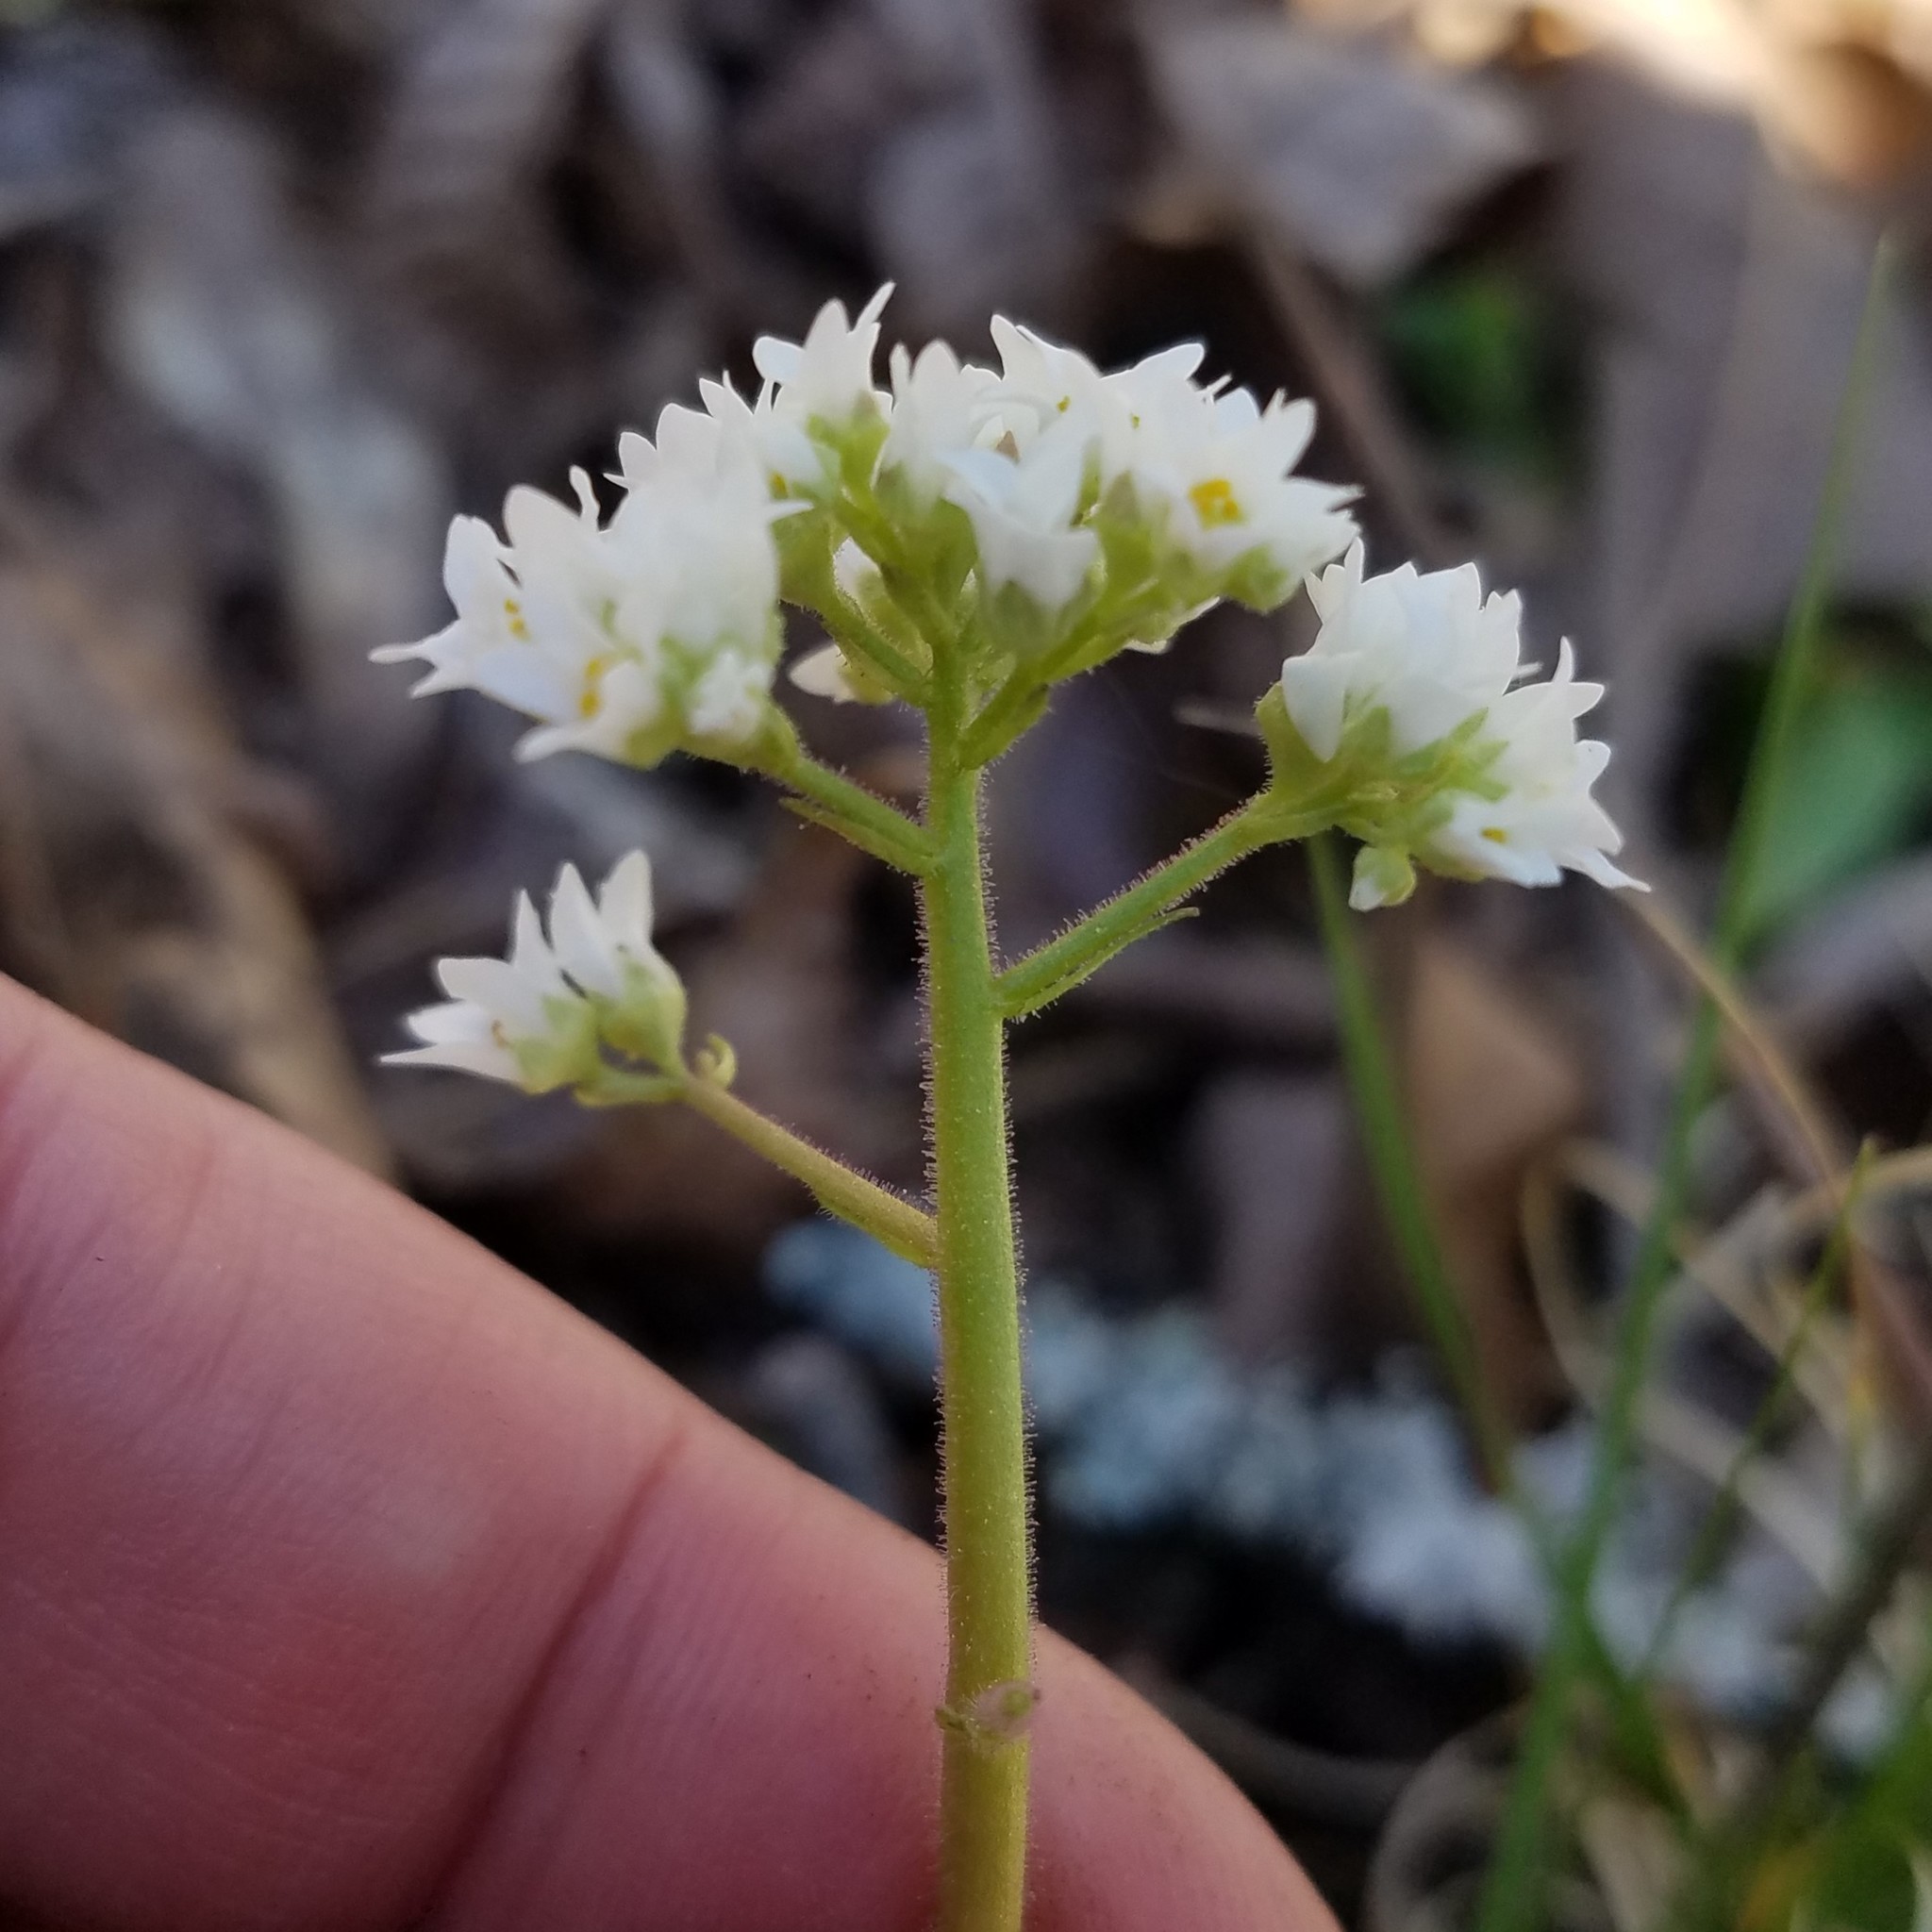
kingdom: Plantae
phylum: Tracheophyta
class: Magnoliopsida
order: Saxifragales
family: Saxifragaceae
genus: Micranthes
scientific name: Micranthes virginiensis
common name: Early saxifrage
